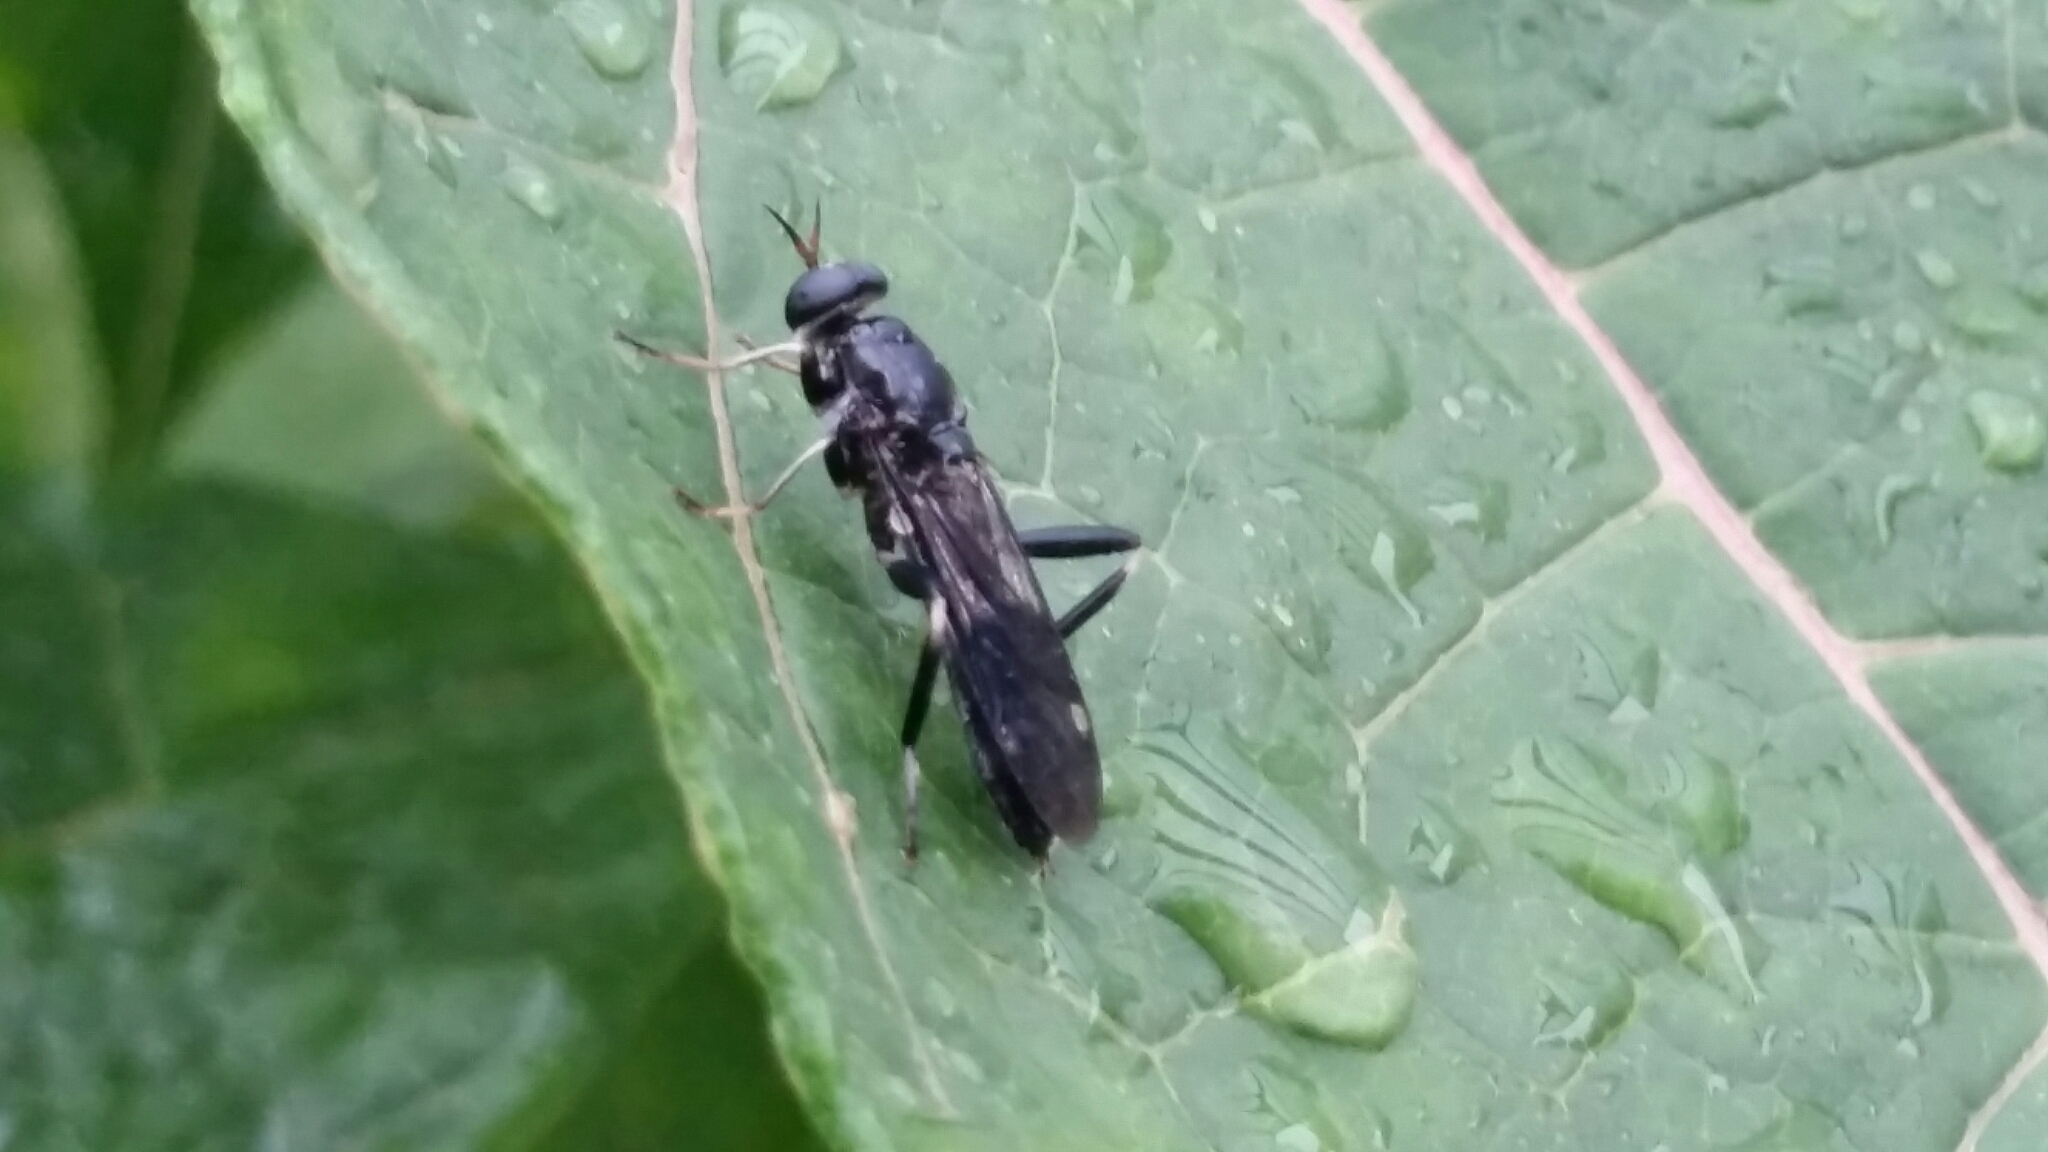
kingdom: Animalia
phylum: Arthropoda
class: Insecta
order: Diptera
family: Stratiomyidae
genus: Exaireta
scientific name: Exaireta spinigera
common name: Blue soldier fly
